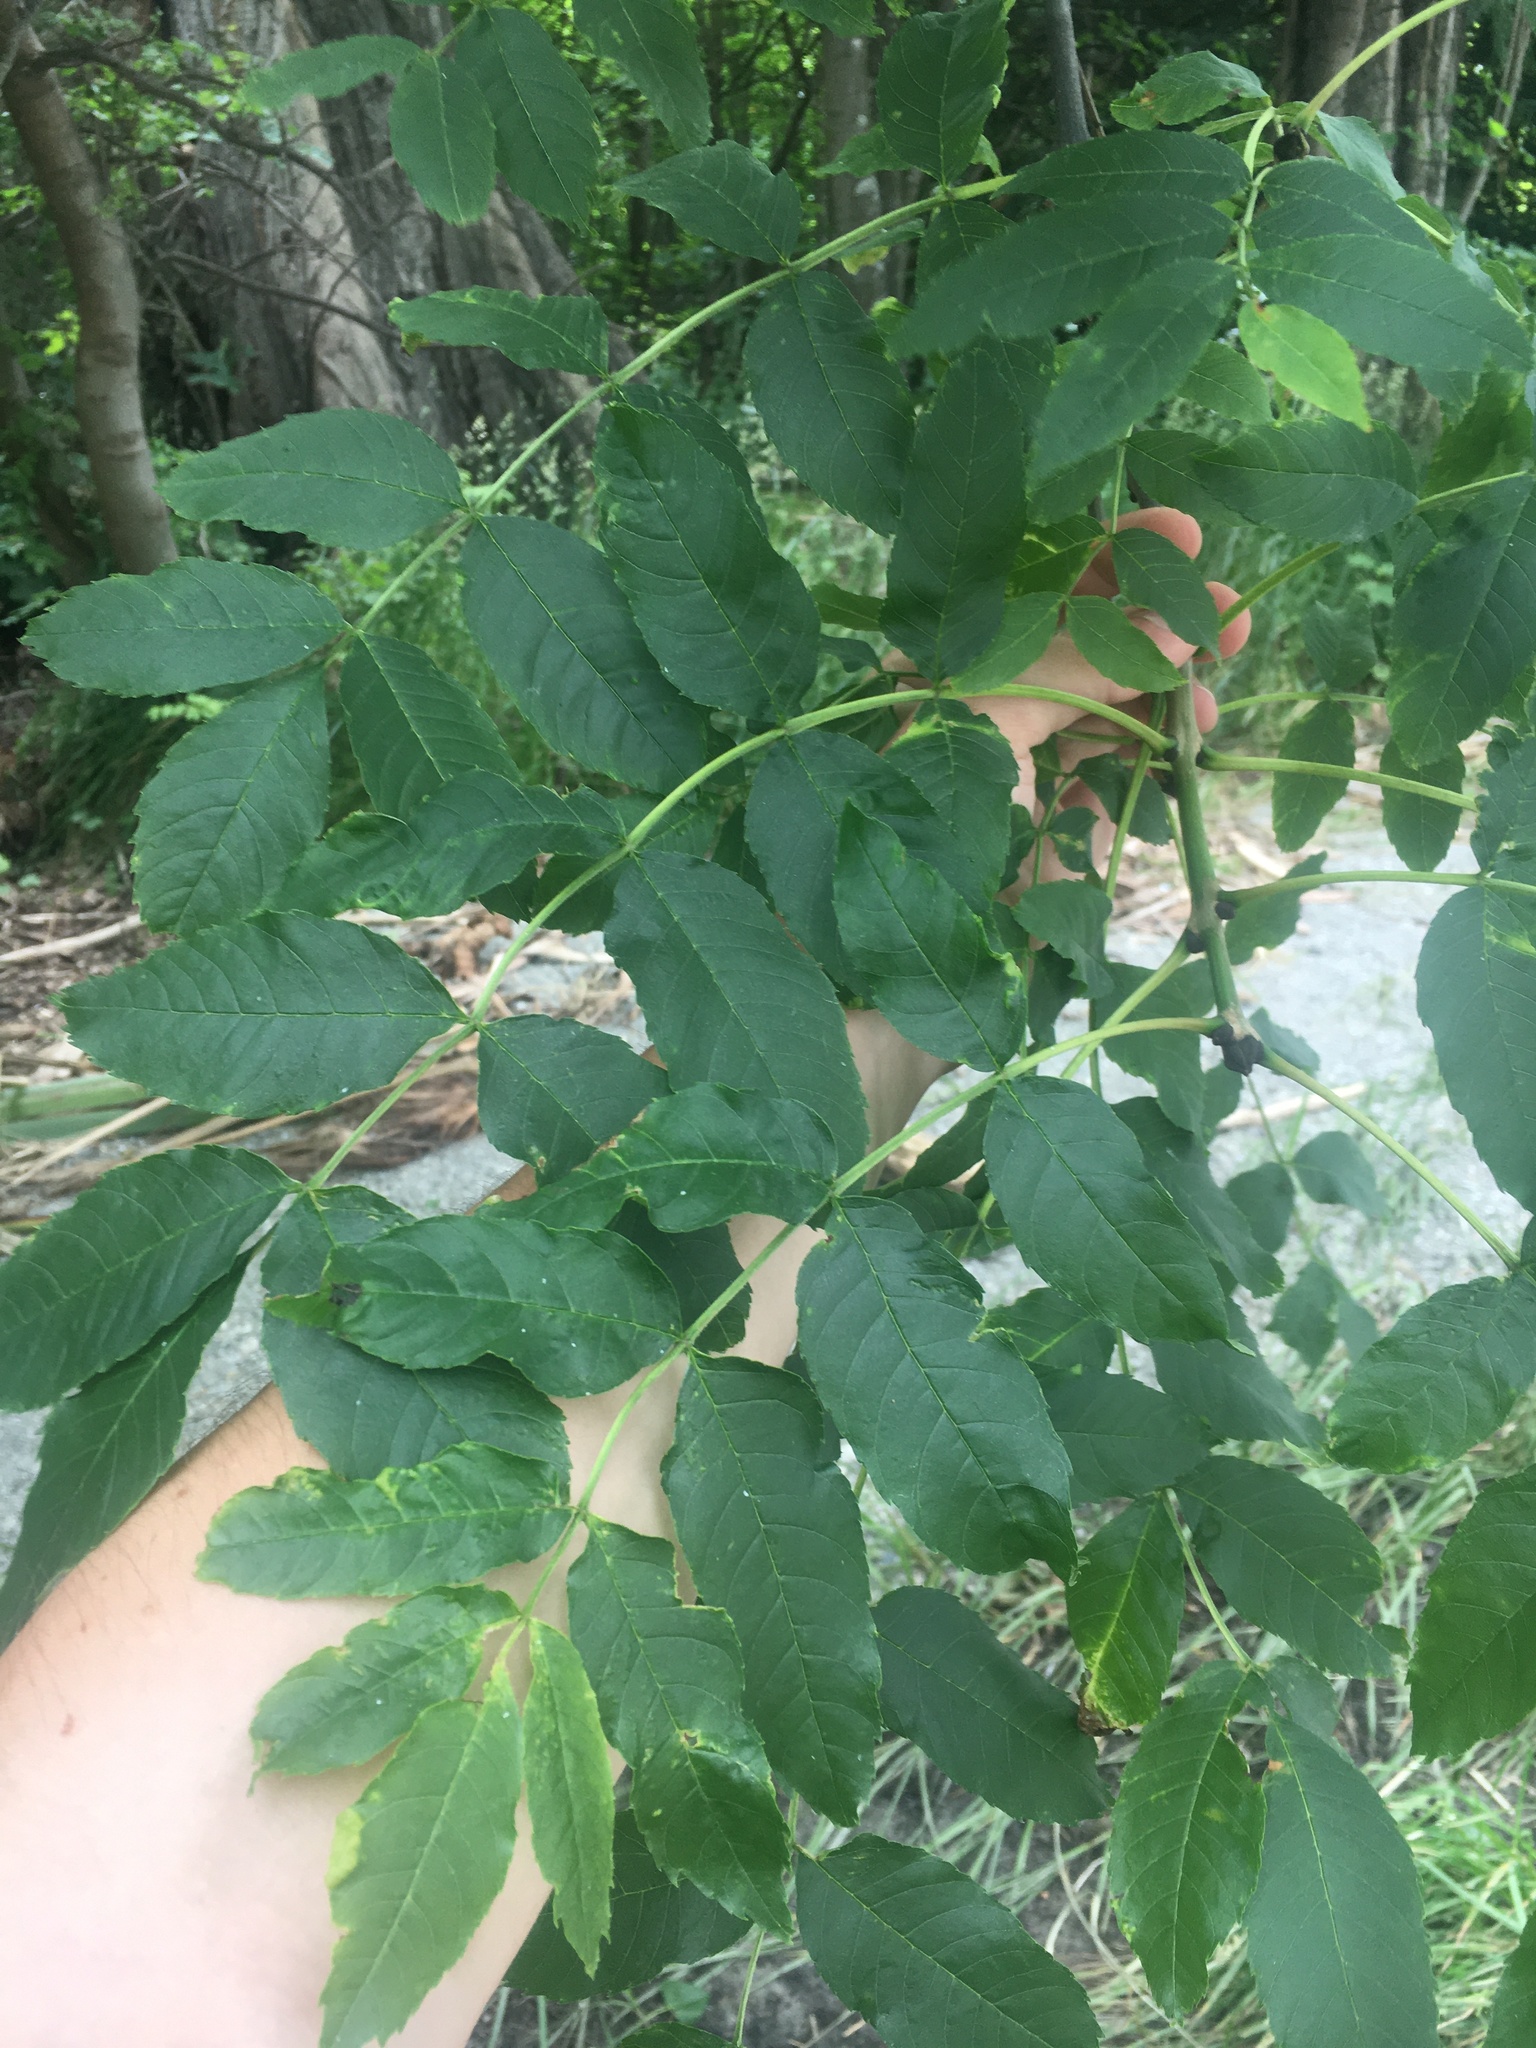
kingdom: Plantae
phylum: Tracheophyta
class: Magnoliopsida
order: Lamiales
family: Oleaceae
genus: Fraxinus
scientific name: Fraxinus excelsior
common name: European ash
